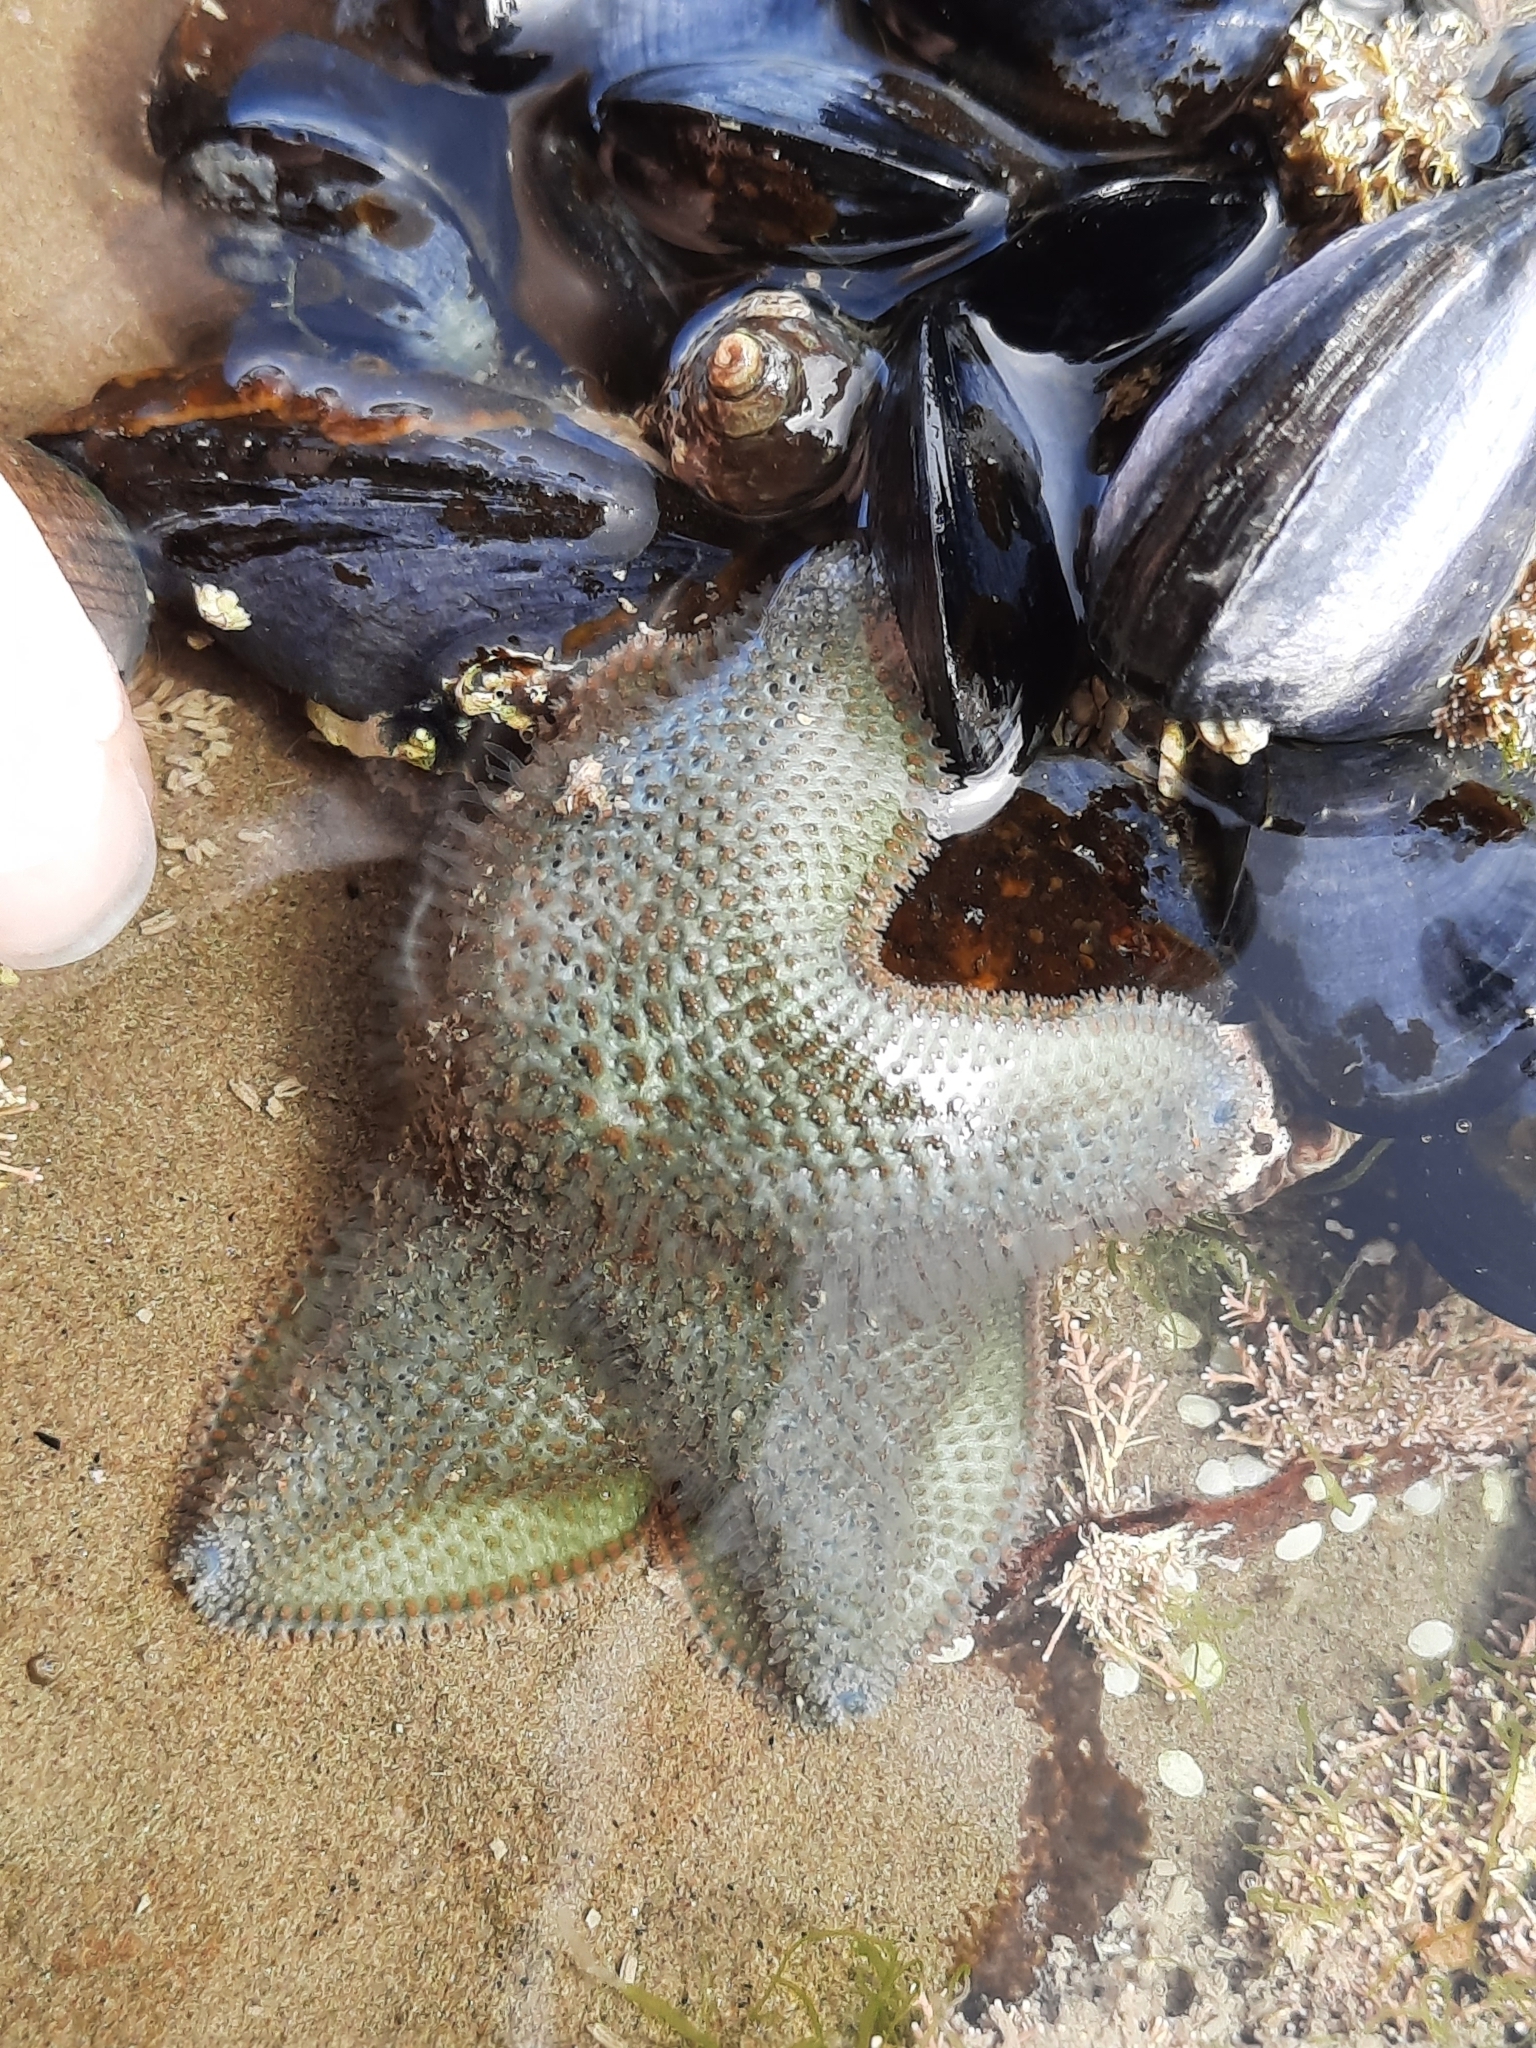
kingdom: Animalia
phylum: Echinodermata
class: Asteroidea
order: Valvatida
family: Asterinidae
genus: Patiriella
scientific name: Patiriella regularis
